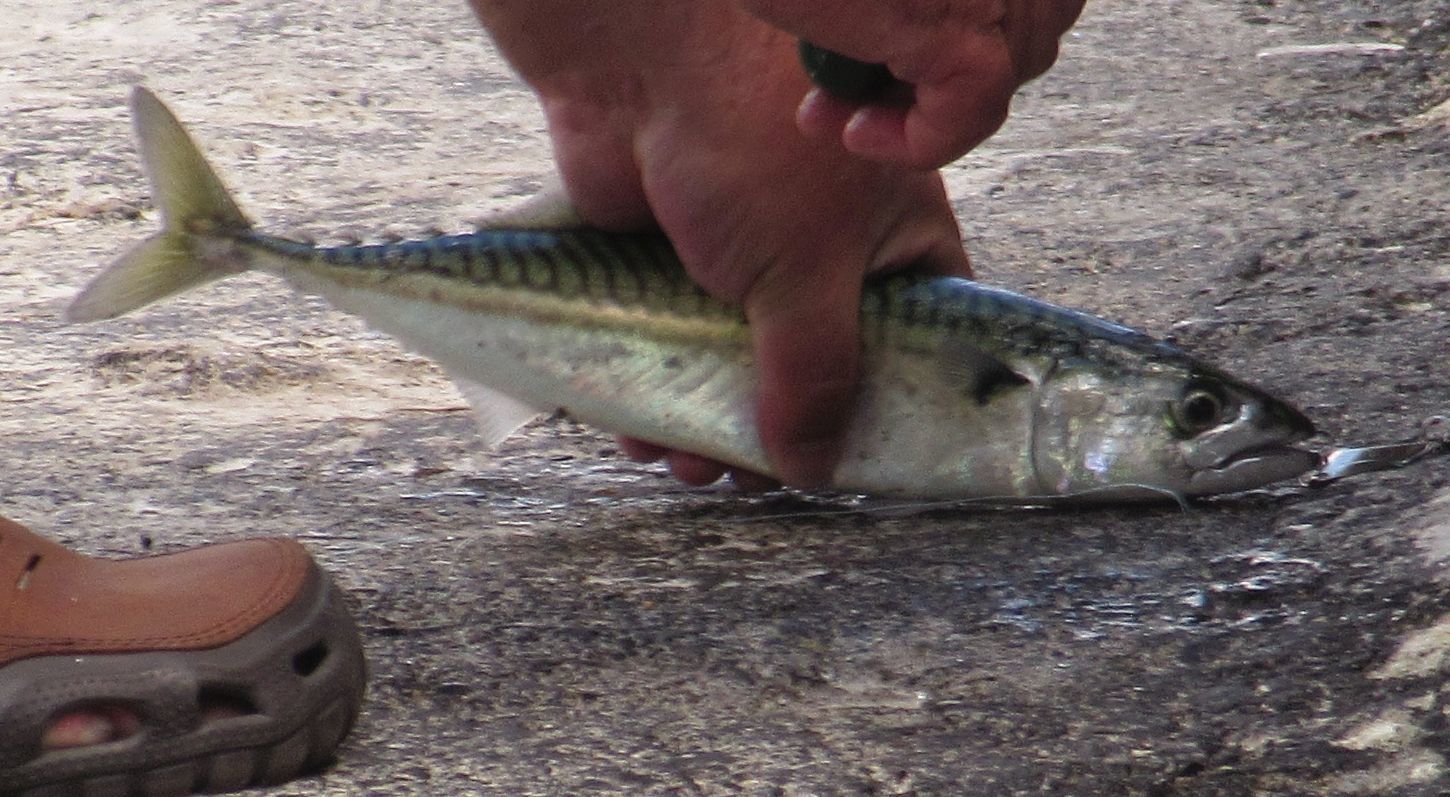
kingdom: Animalia
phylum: Chordata
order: Perciformes
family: Scombridae
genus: Scomber
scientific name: Scomber scombrus
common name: Mackerel
